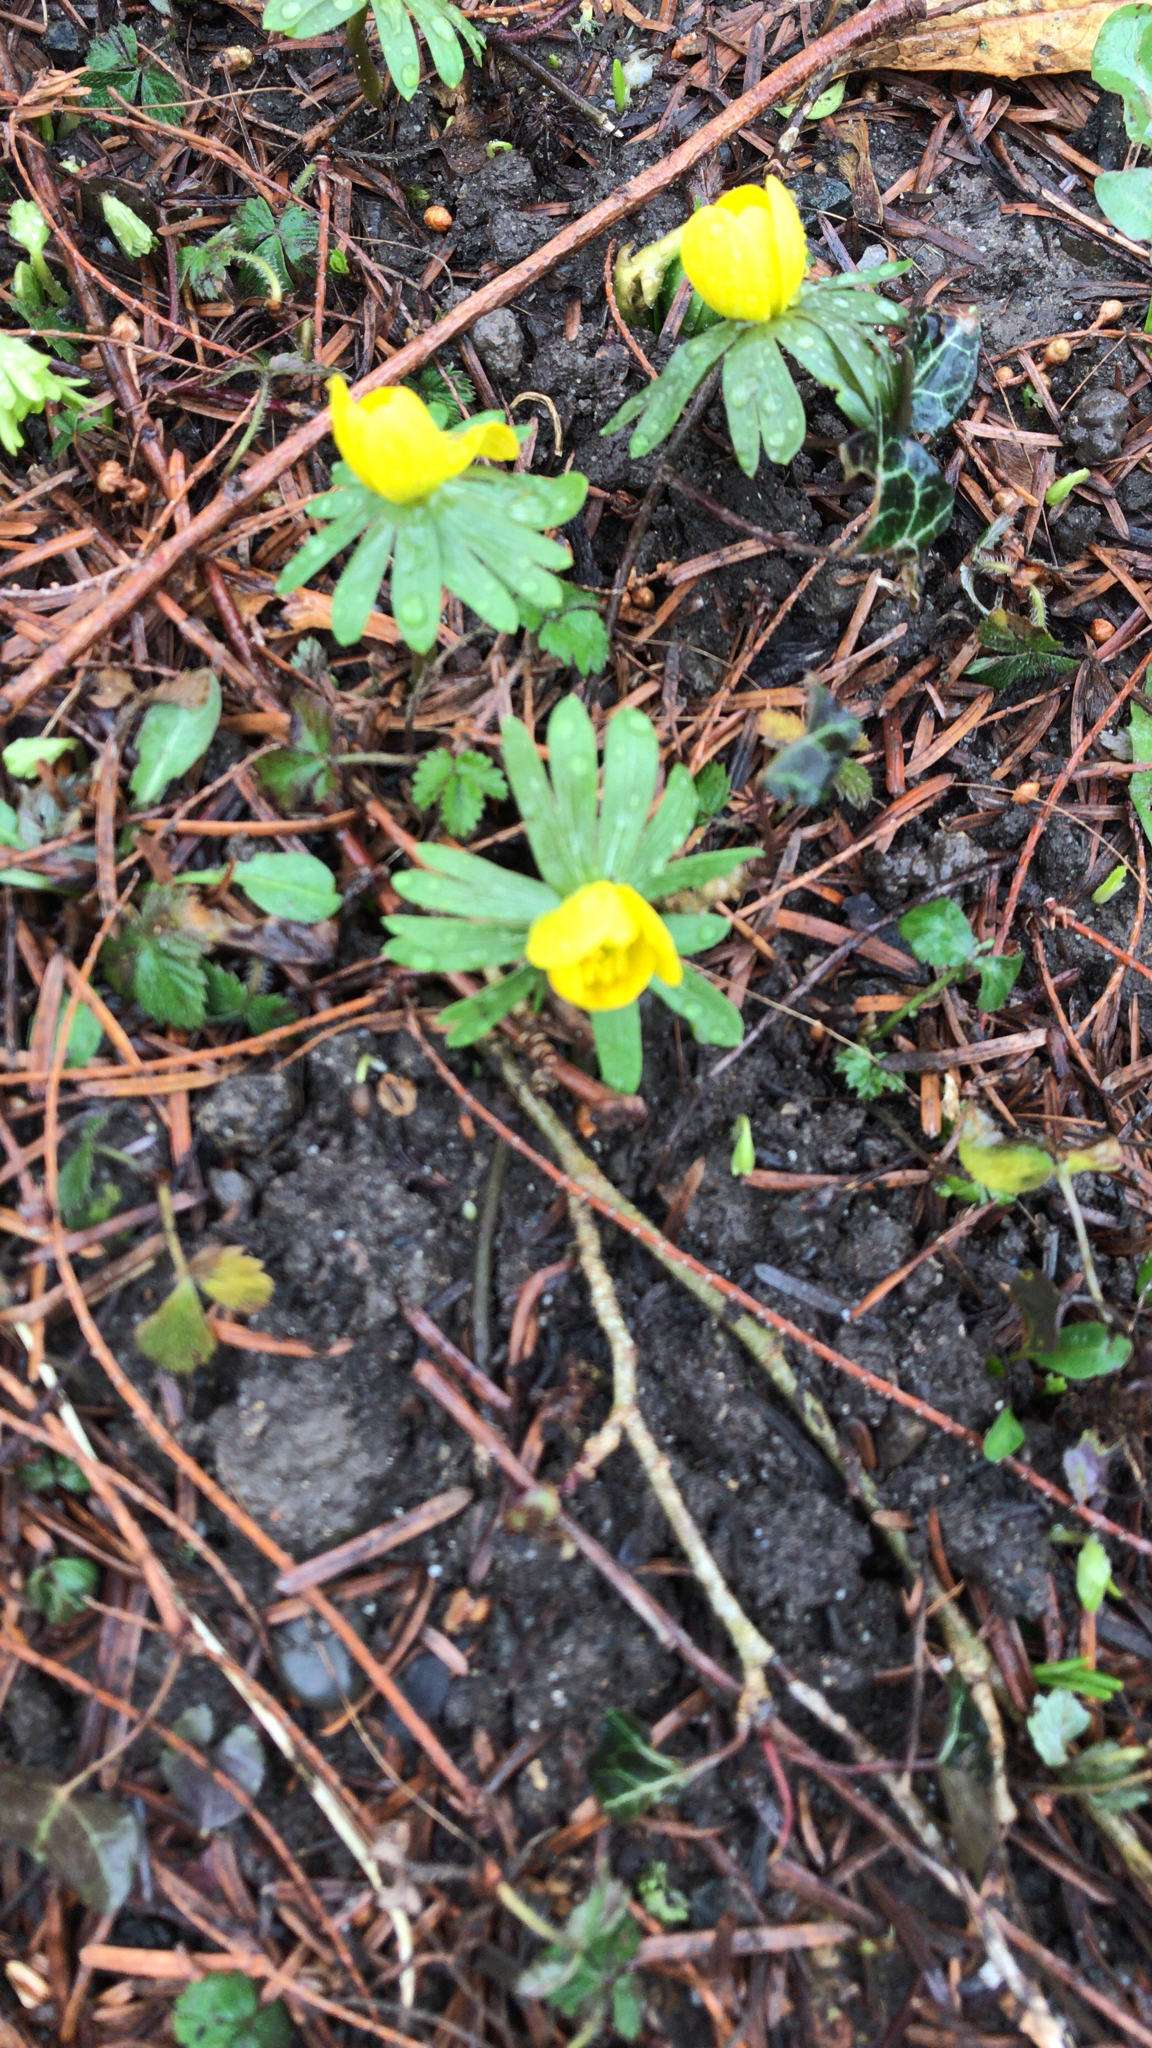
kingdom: Plantae
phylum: Tracheophyta
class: Magnoliopsida
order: Ranunculales
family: Ranunculaceae
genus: Eranthis
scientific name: Eranthis hyemalis
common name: Winter aconite
